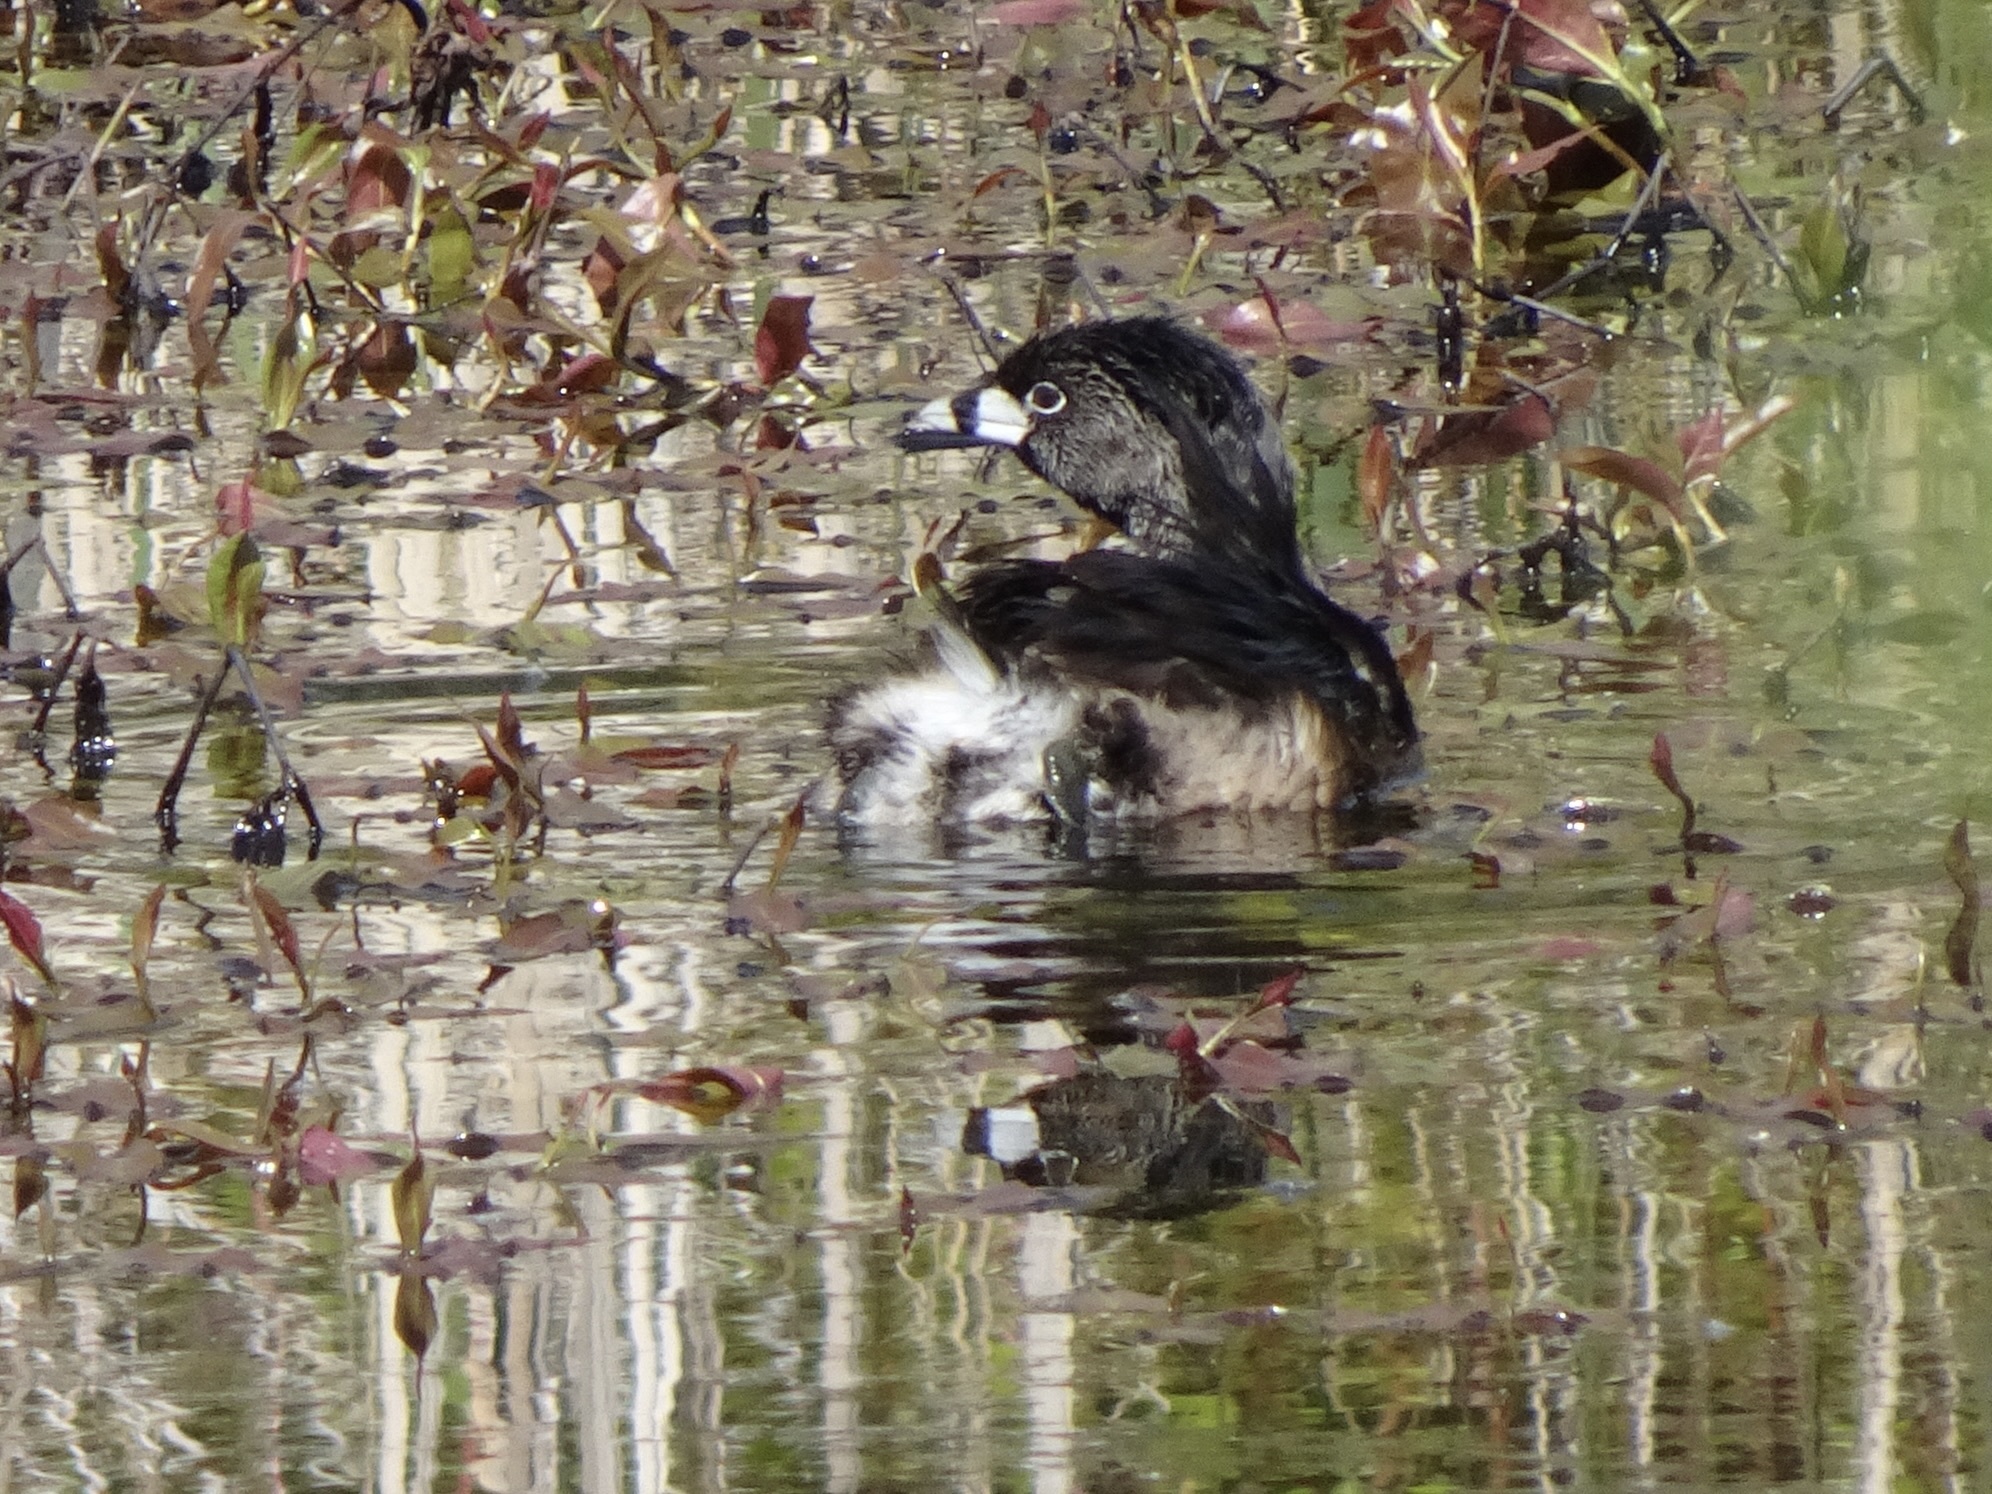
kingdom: Animalia
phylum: Chordata
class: Aves
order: Podicipediformes
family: Podicipedidae
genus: Podilymbus
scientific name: Podilymbus podiceps
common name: Pied-billed grebe
